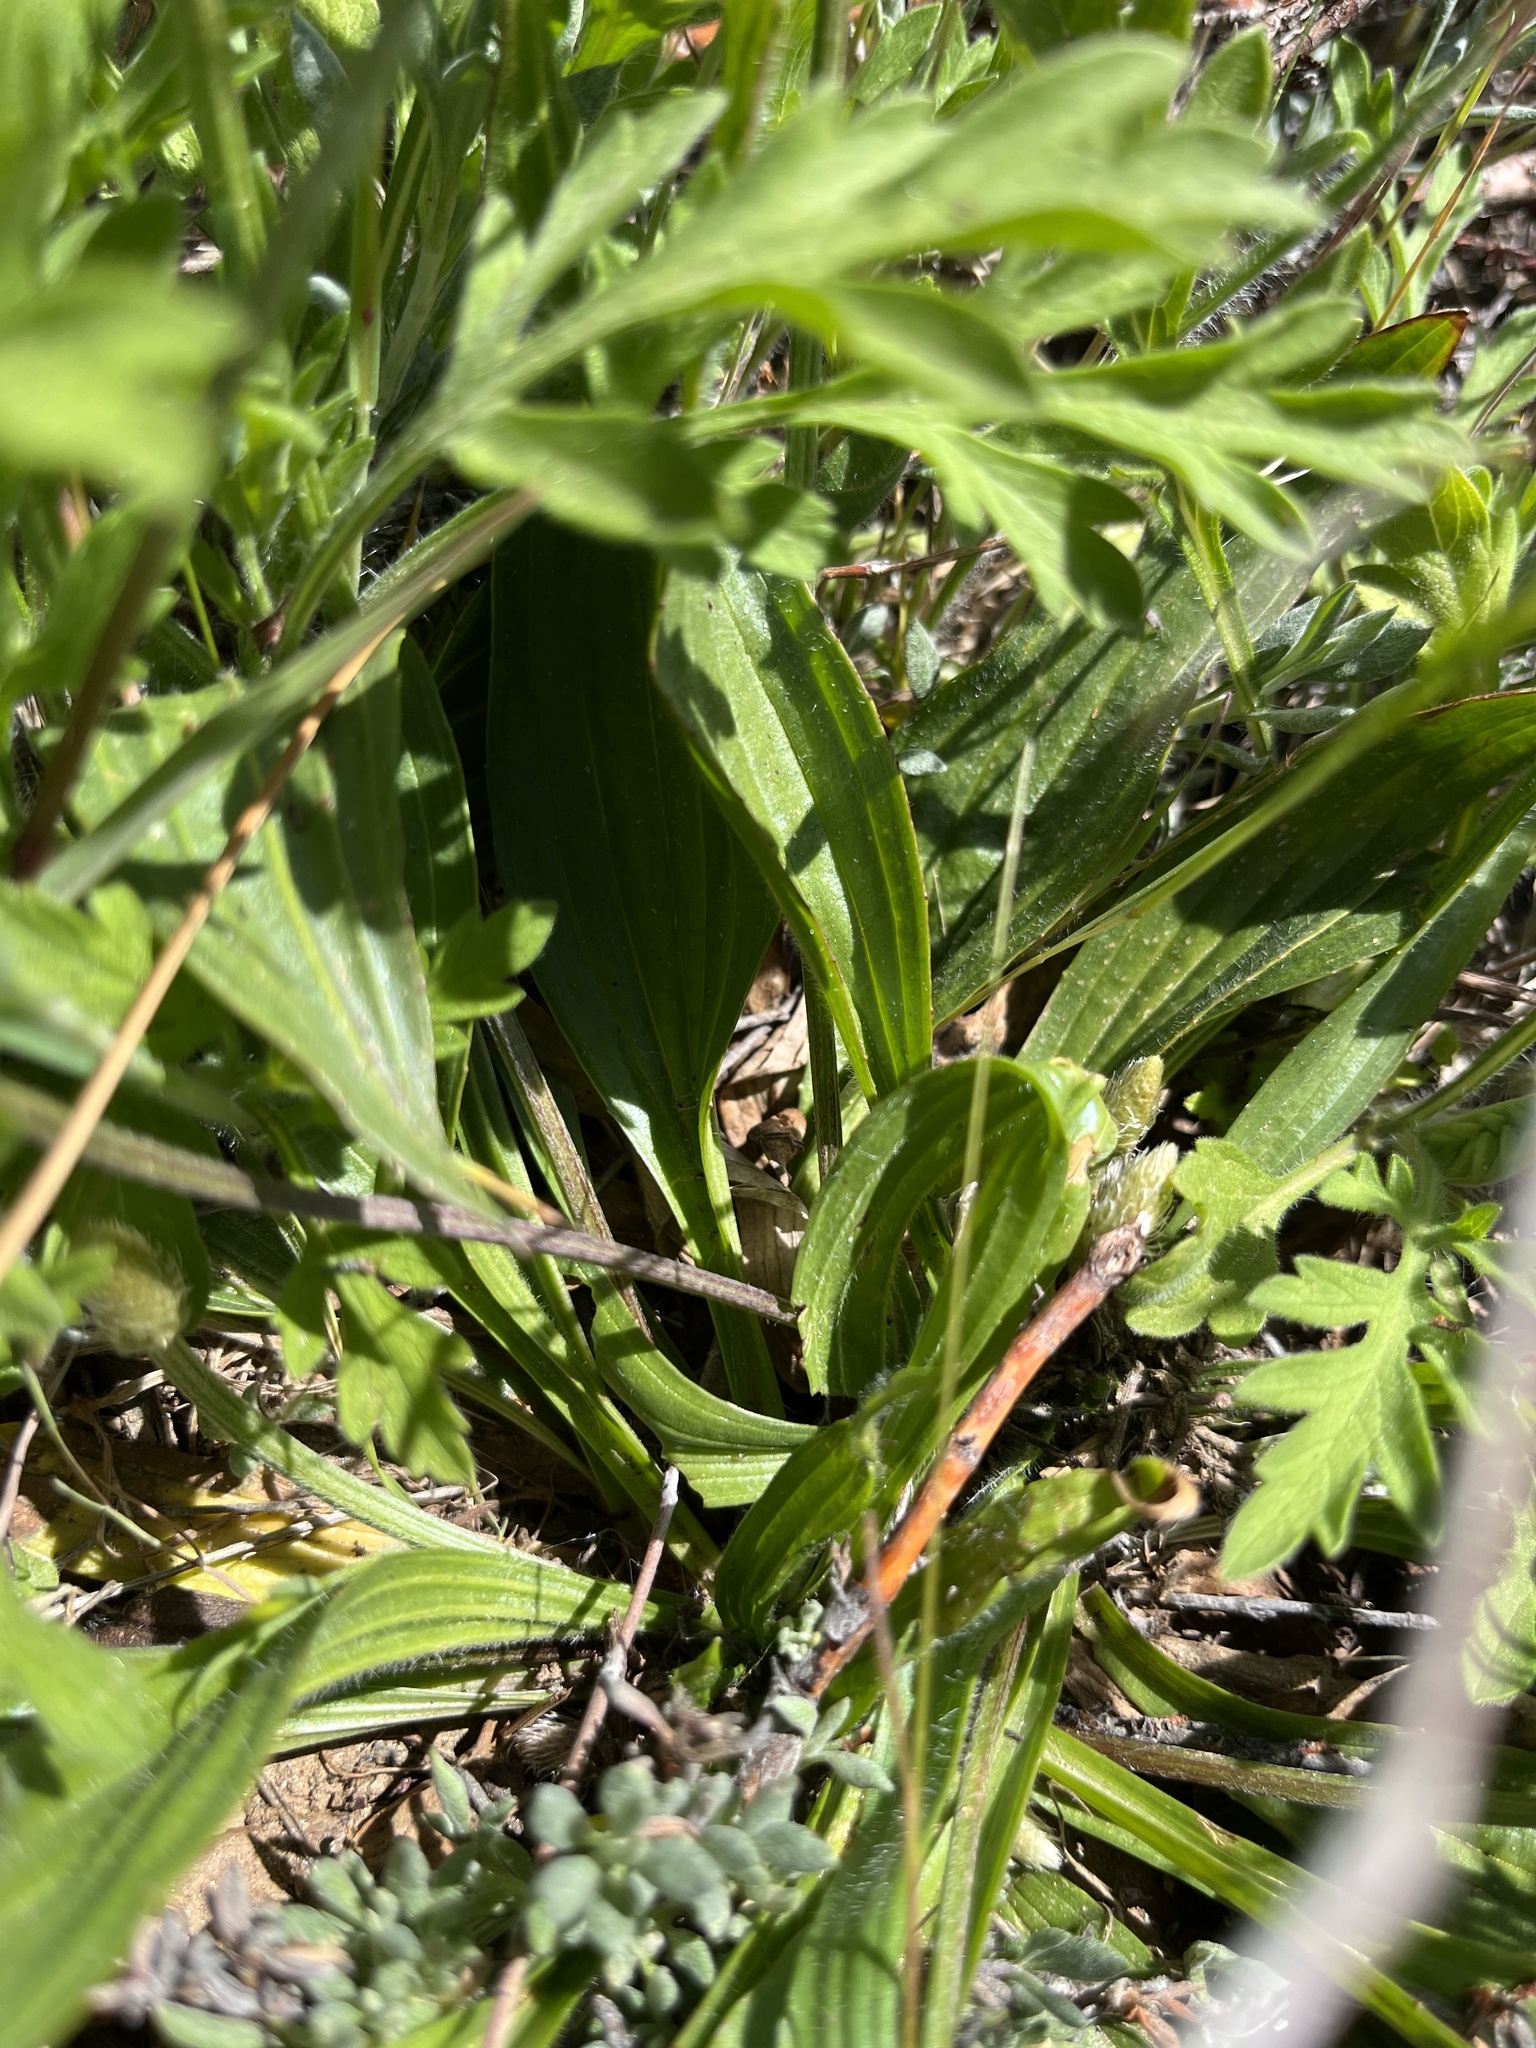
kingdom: Plantae
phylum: Tracheophyta
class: Magnoliopsida
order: Lamiales
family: Plantaginaceae
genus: Plantago
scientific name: Plantago lanceolata
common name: Ribwort plantain
